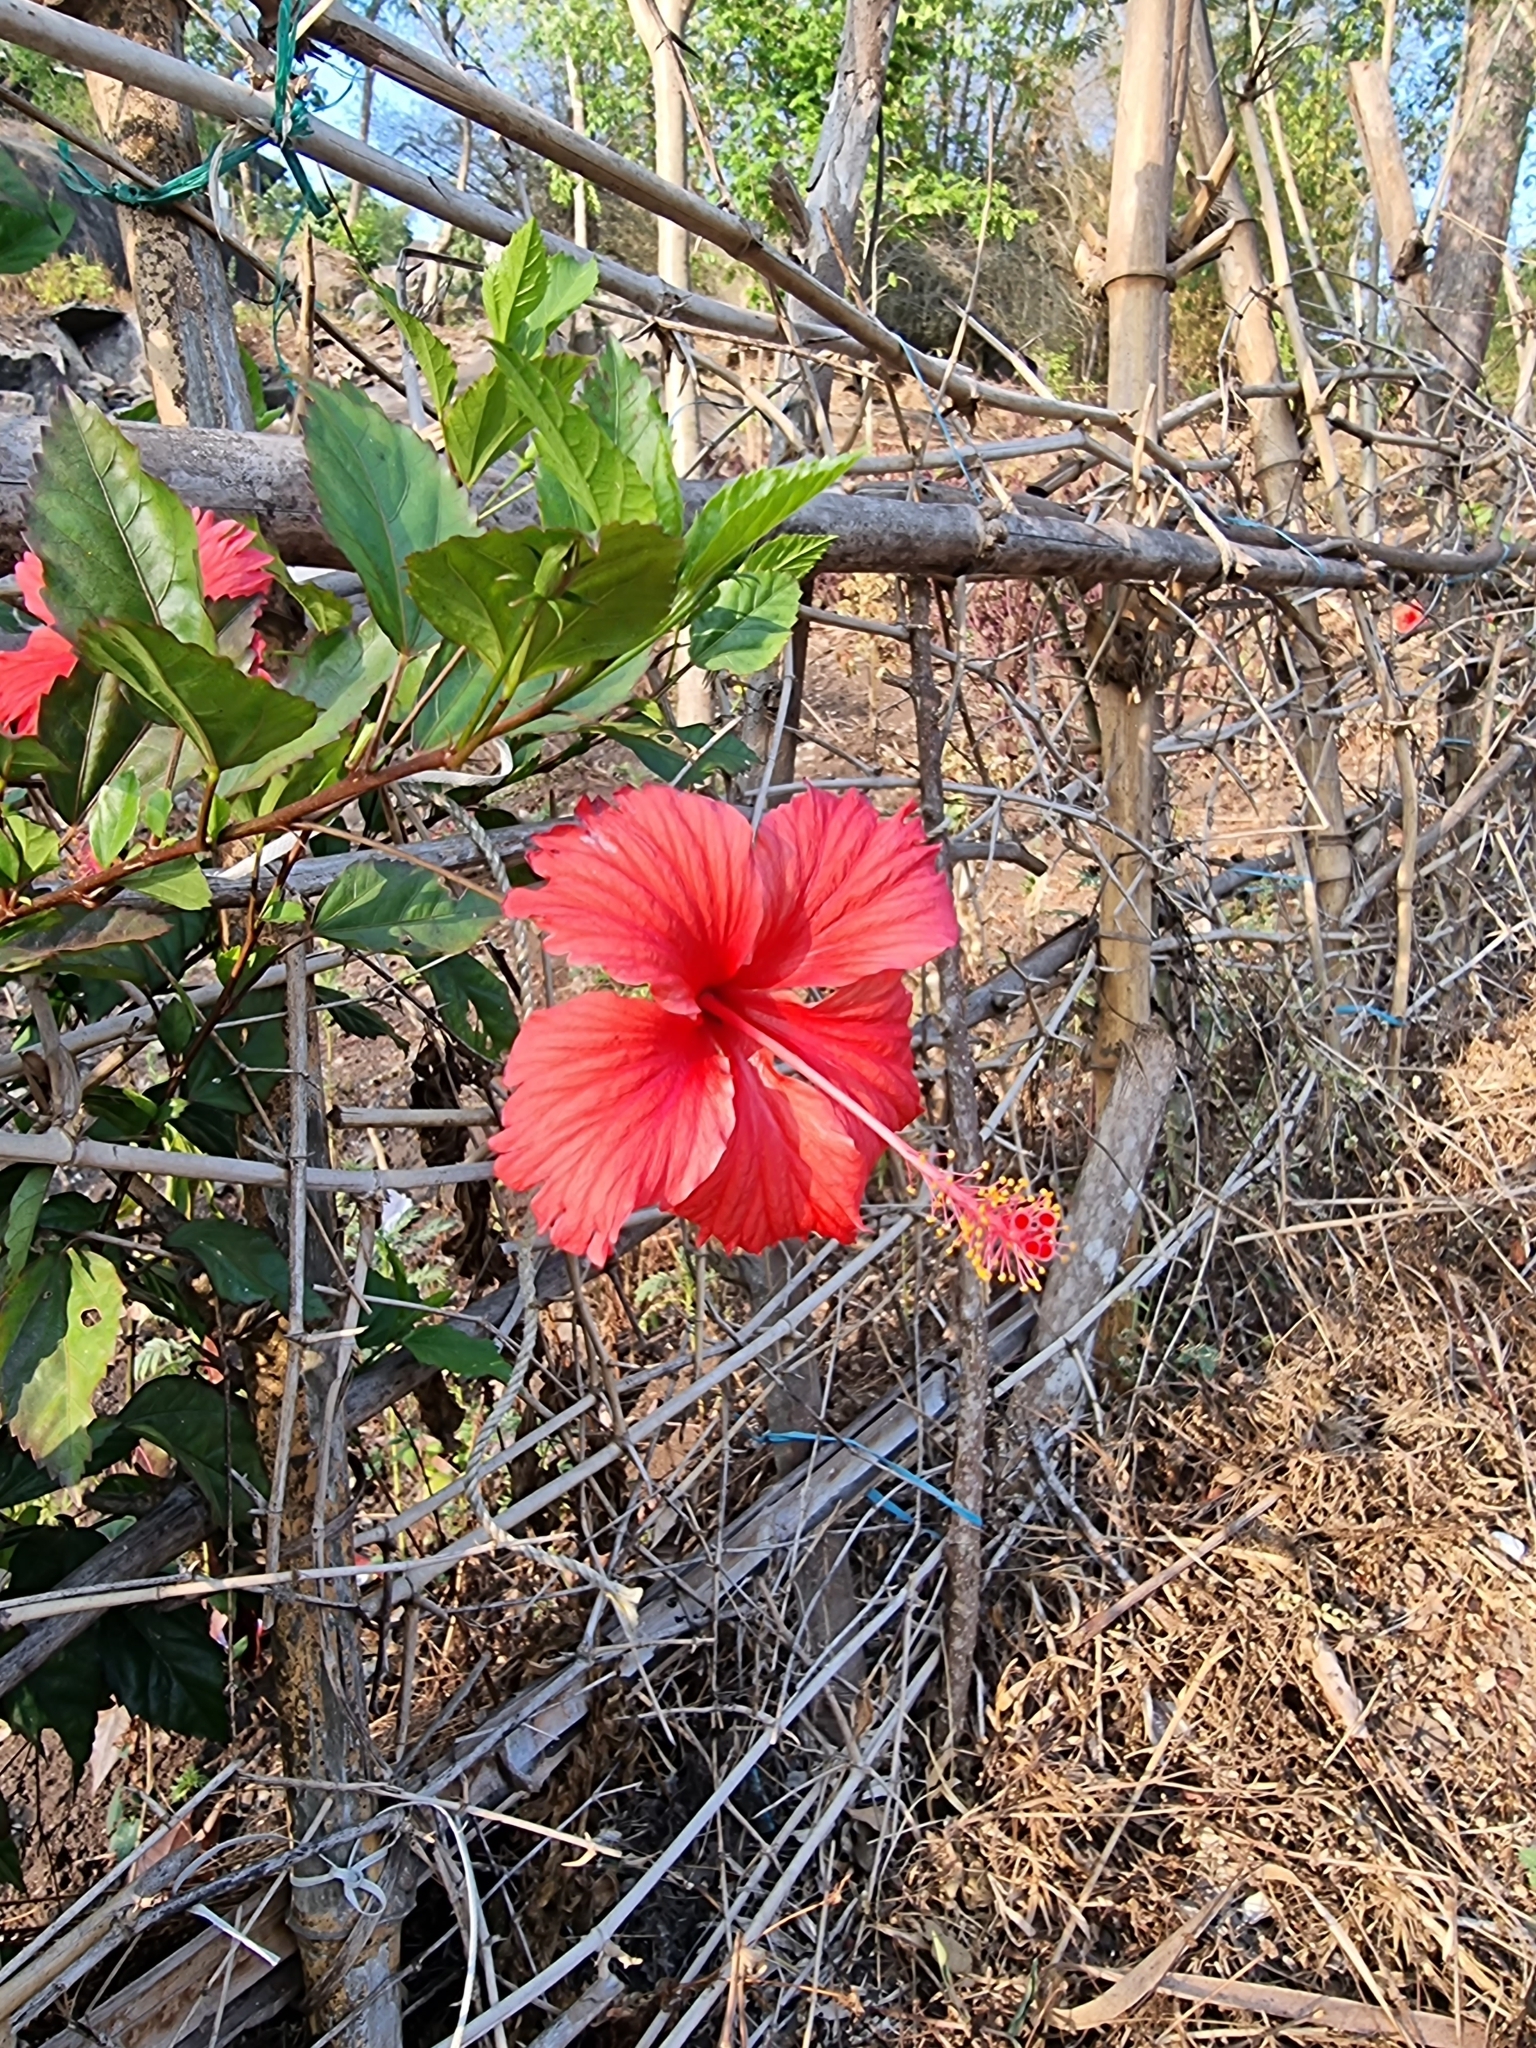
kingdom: Plantae
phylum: Tracheophyta
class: Magnoliopsida
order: Malvales
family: Malvaceae
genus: Hibiscus
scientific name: Hibiscus archeri
